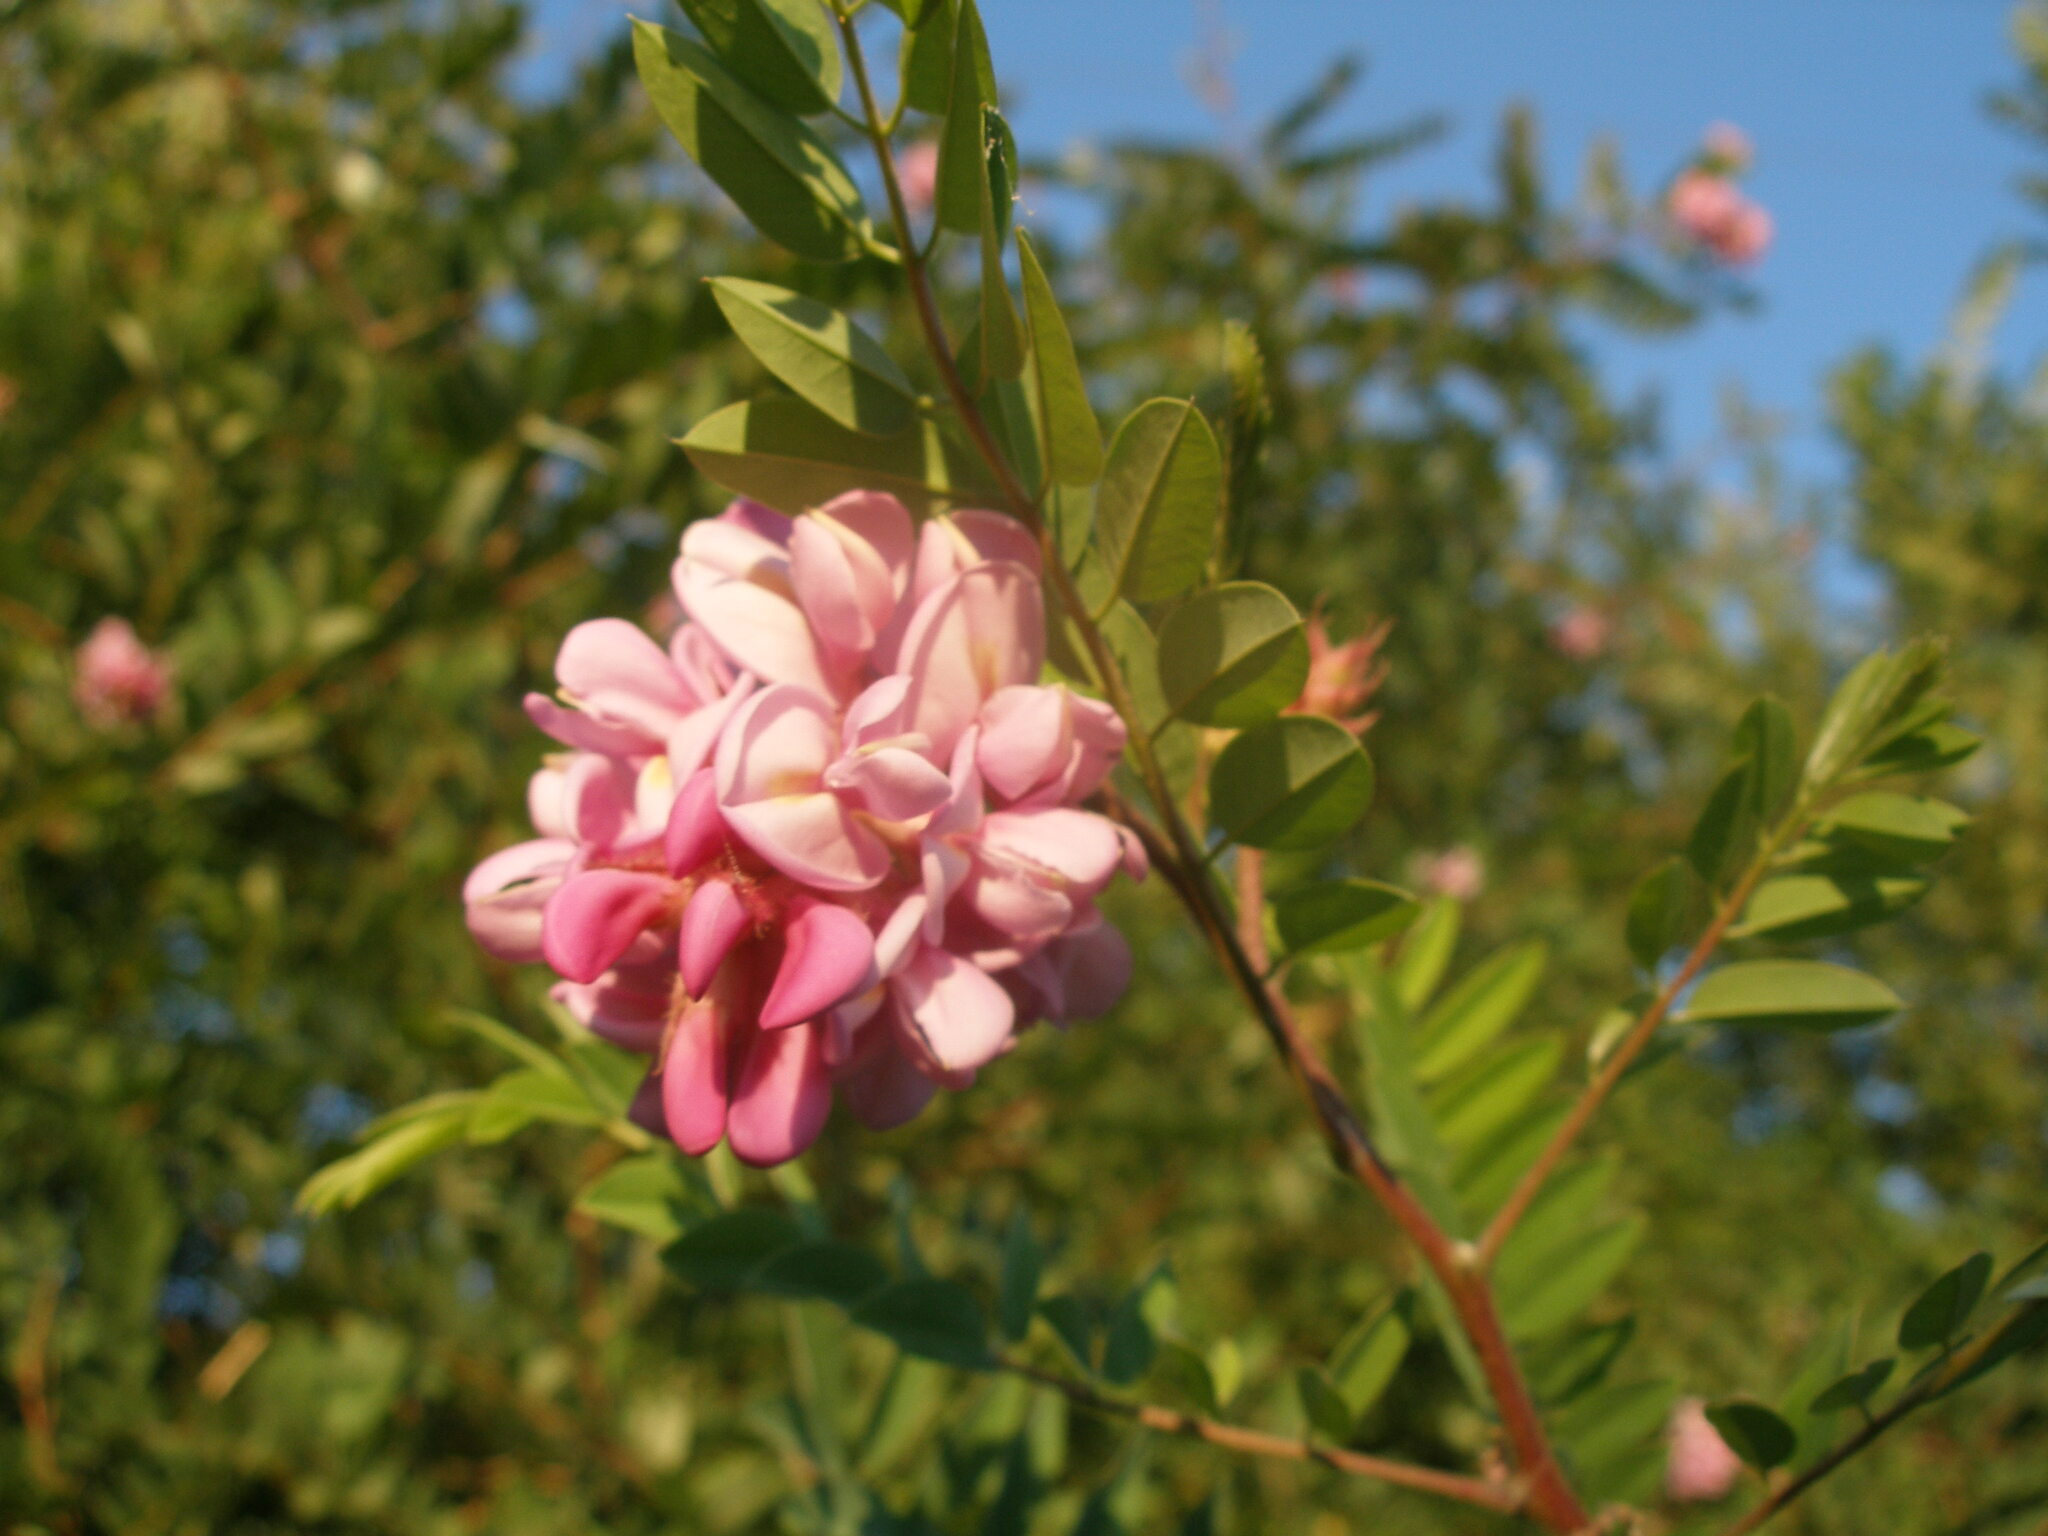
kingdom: Plantae
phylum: Tracheophyta
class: Magnoliopsida
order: Fabales
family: Fabaceae
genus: Robinia
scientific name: Robinia viscosa
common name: Clammy locust
